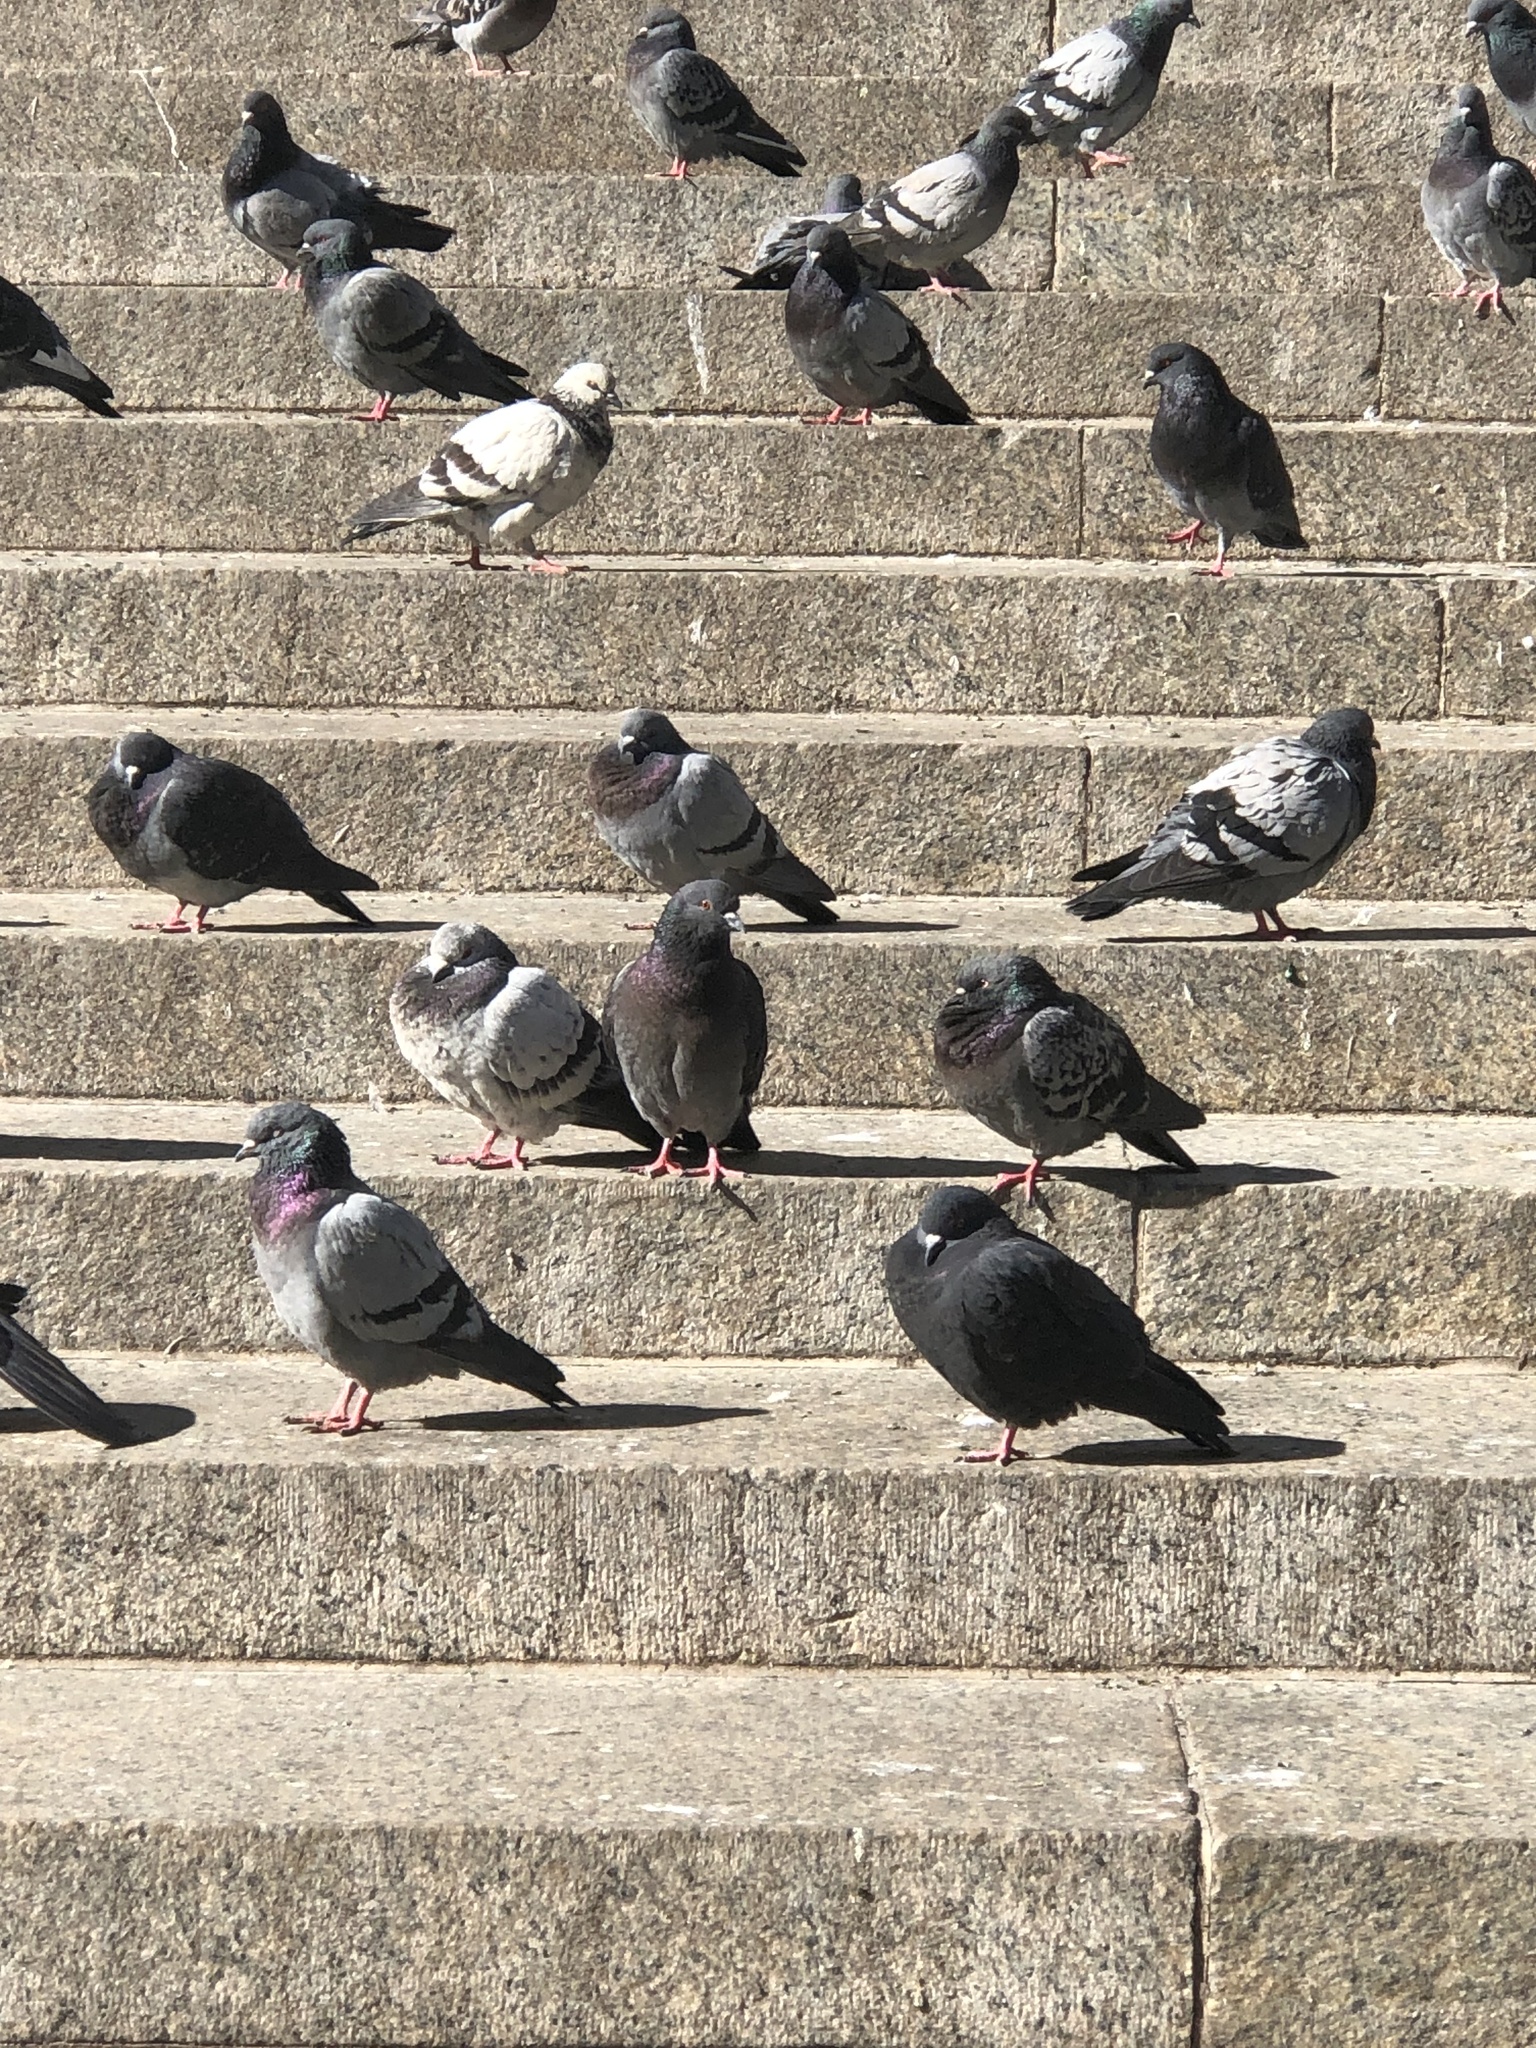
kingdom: Animalia
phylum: Chordata
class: Aves
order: Columbiformes
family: Columbidae
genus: Columba
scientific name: Columba livia
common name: Rock pigeon
